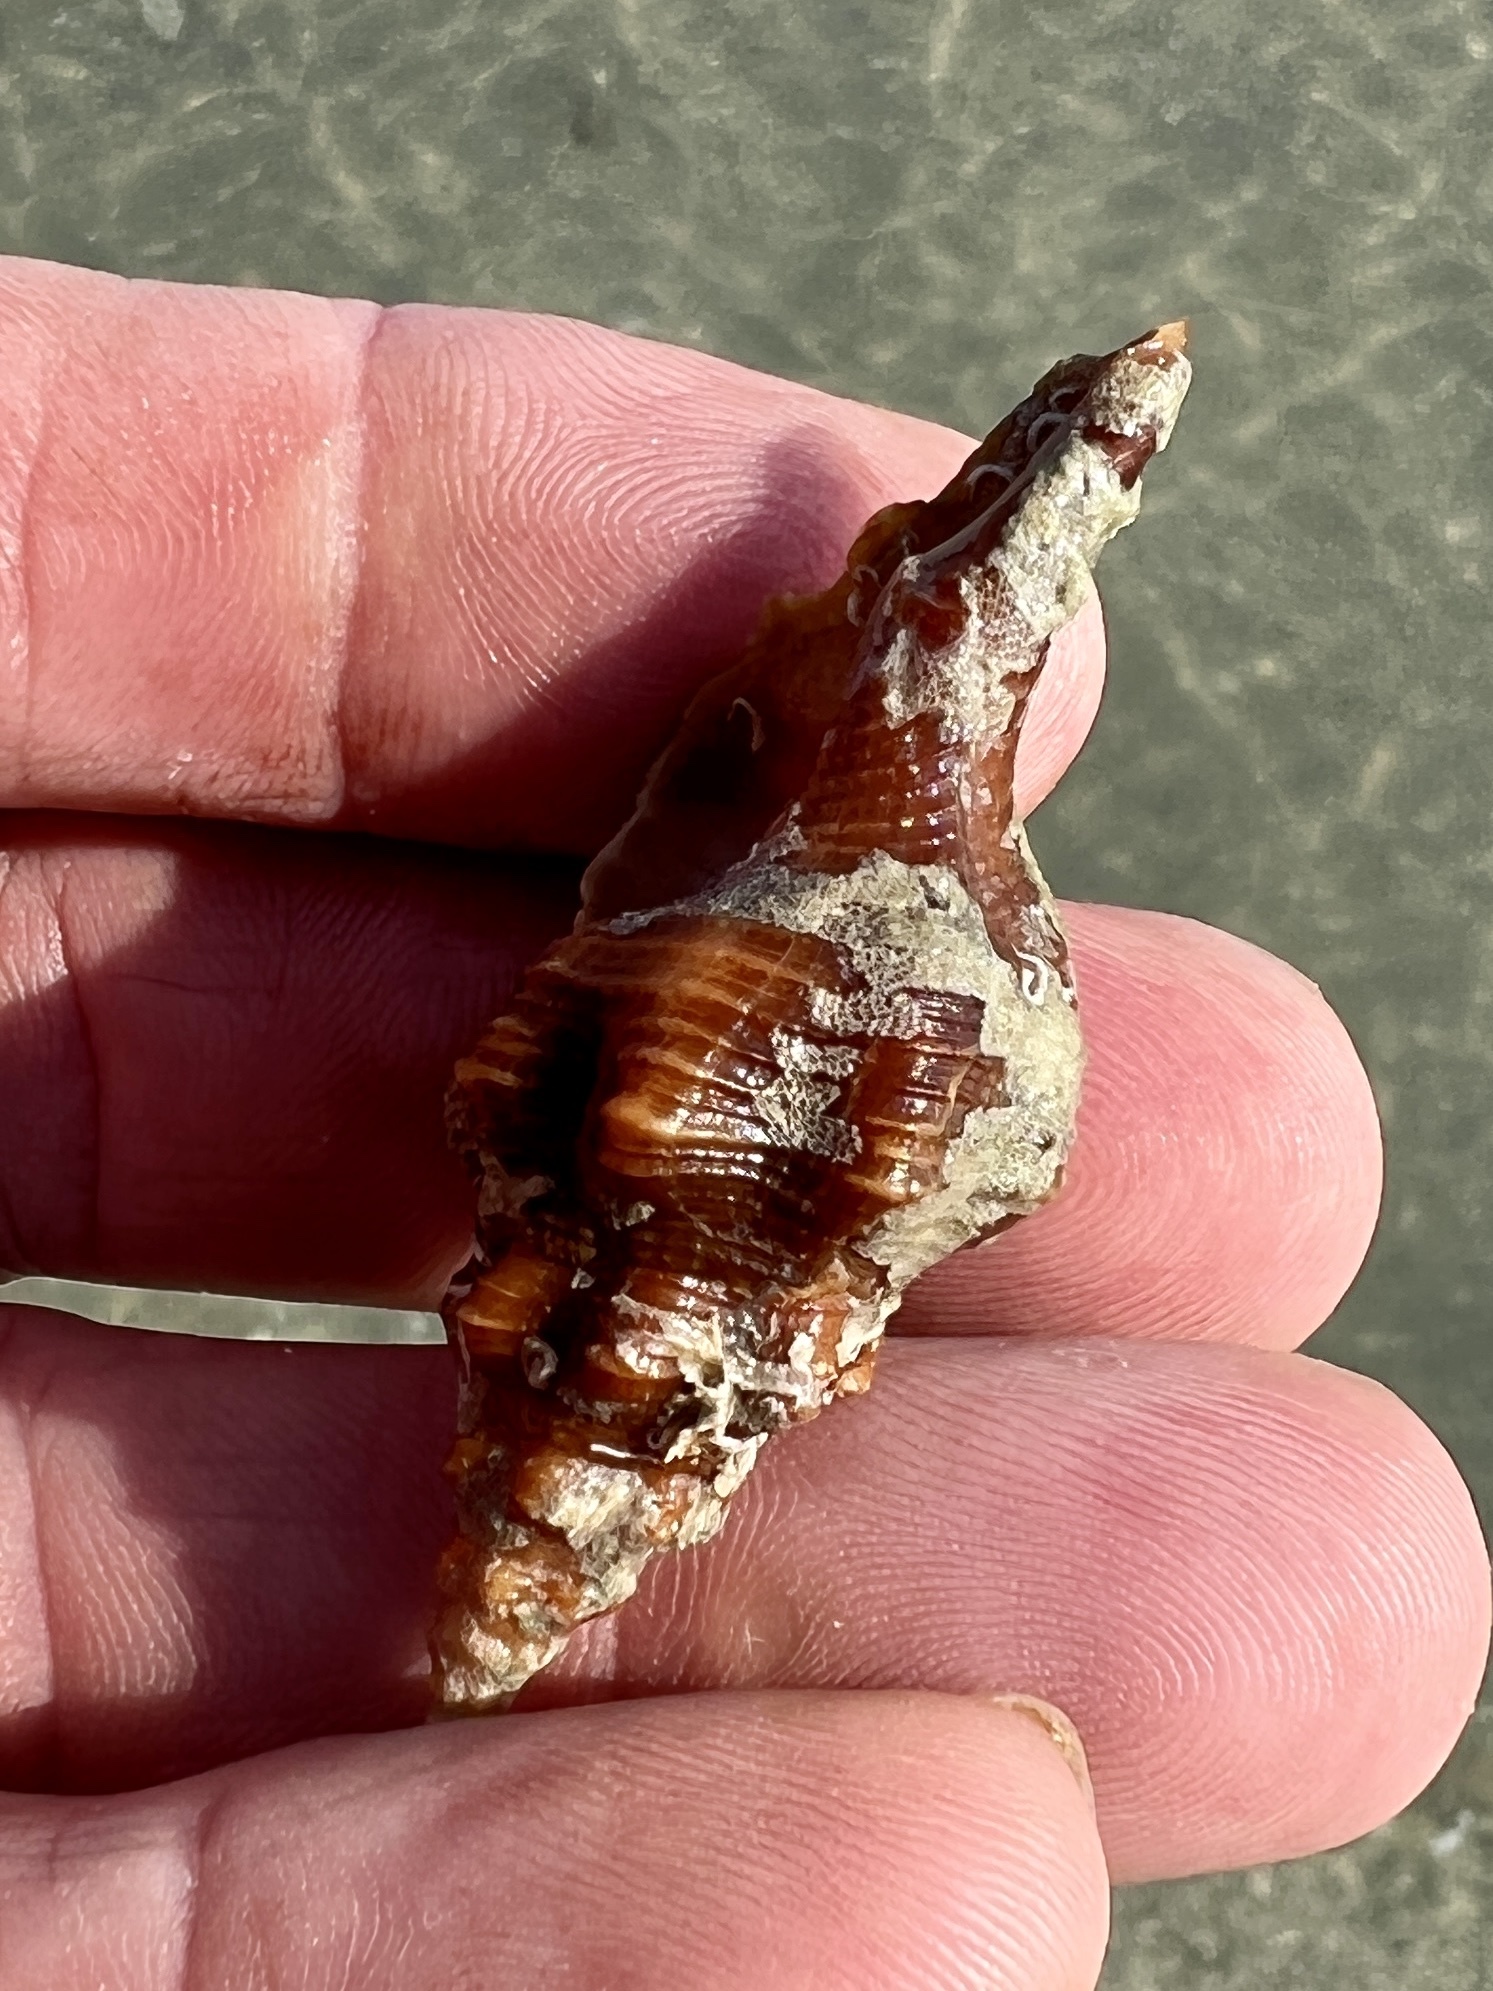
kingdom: Animalia
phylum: Mollusca
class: Gastropoda
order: Neogastropoda
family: Fasciolariidae
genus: Triplofusus
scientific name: Triplofusus giganteus
